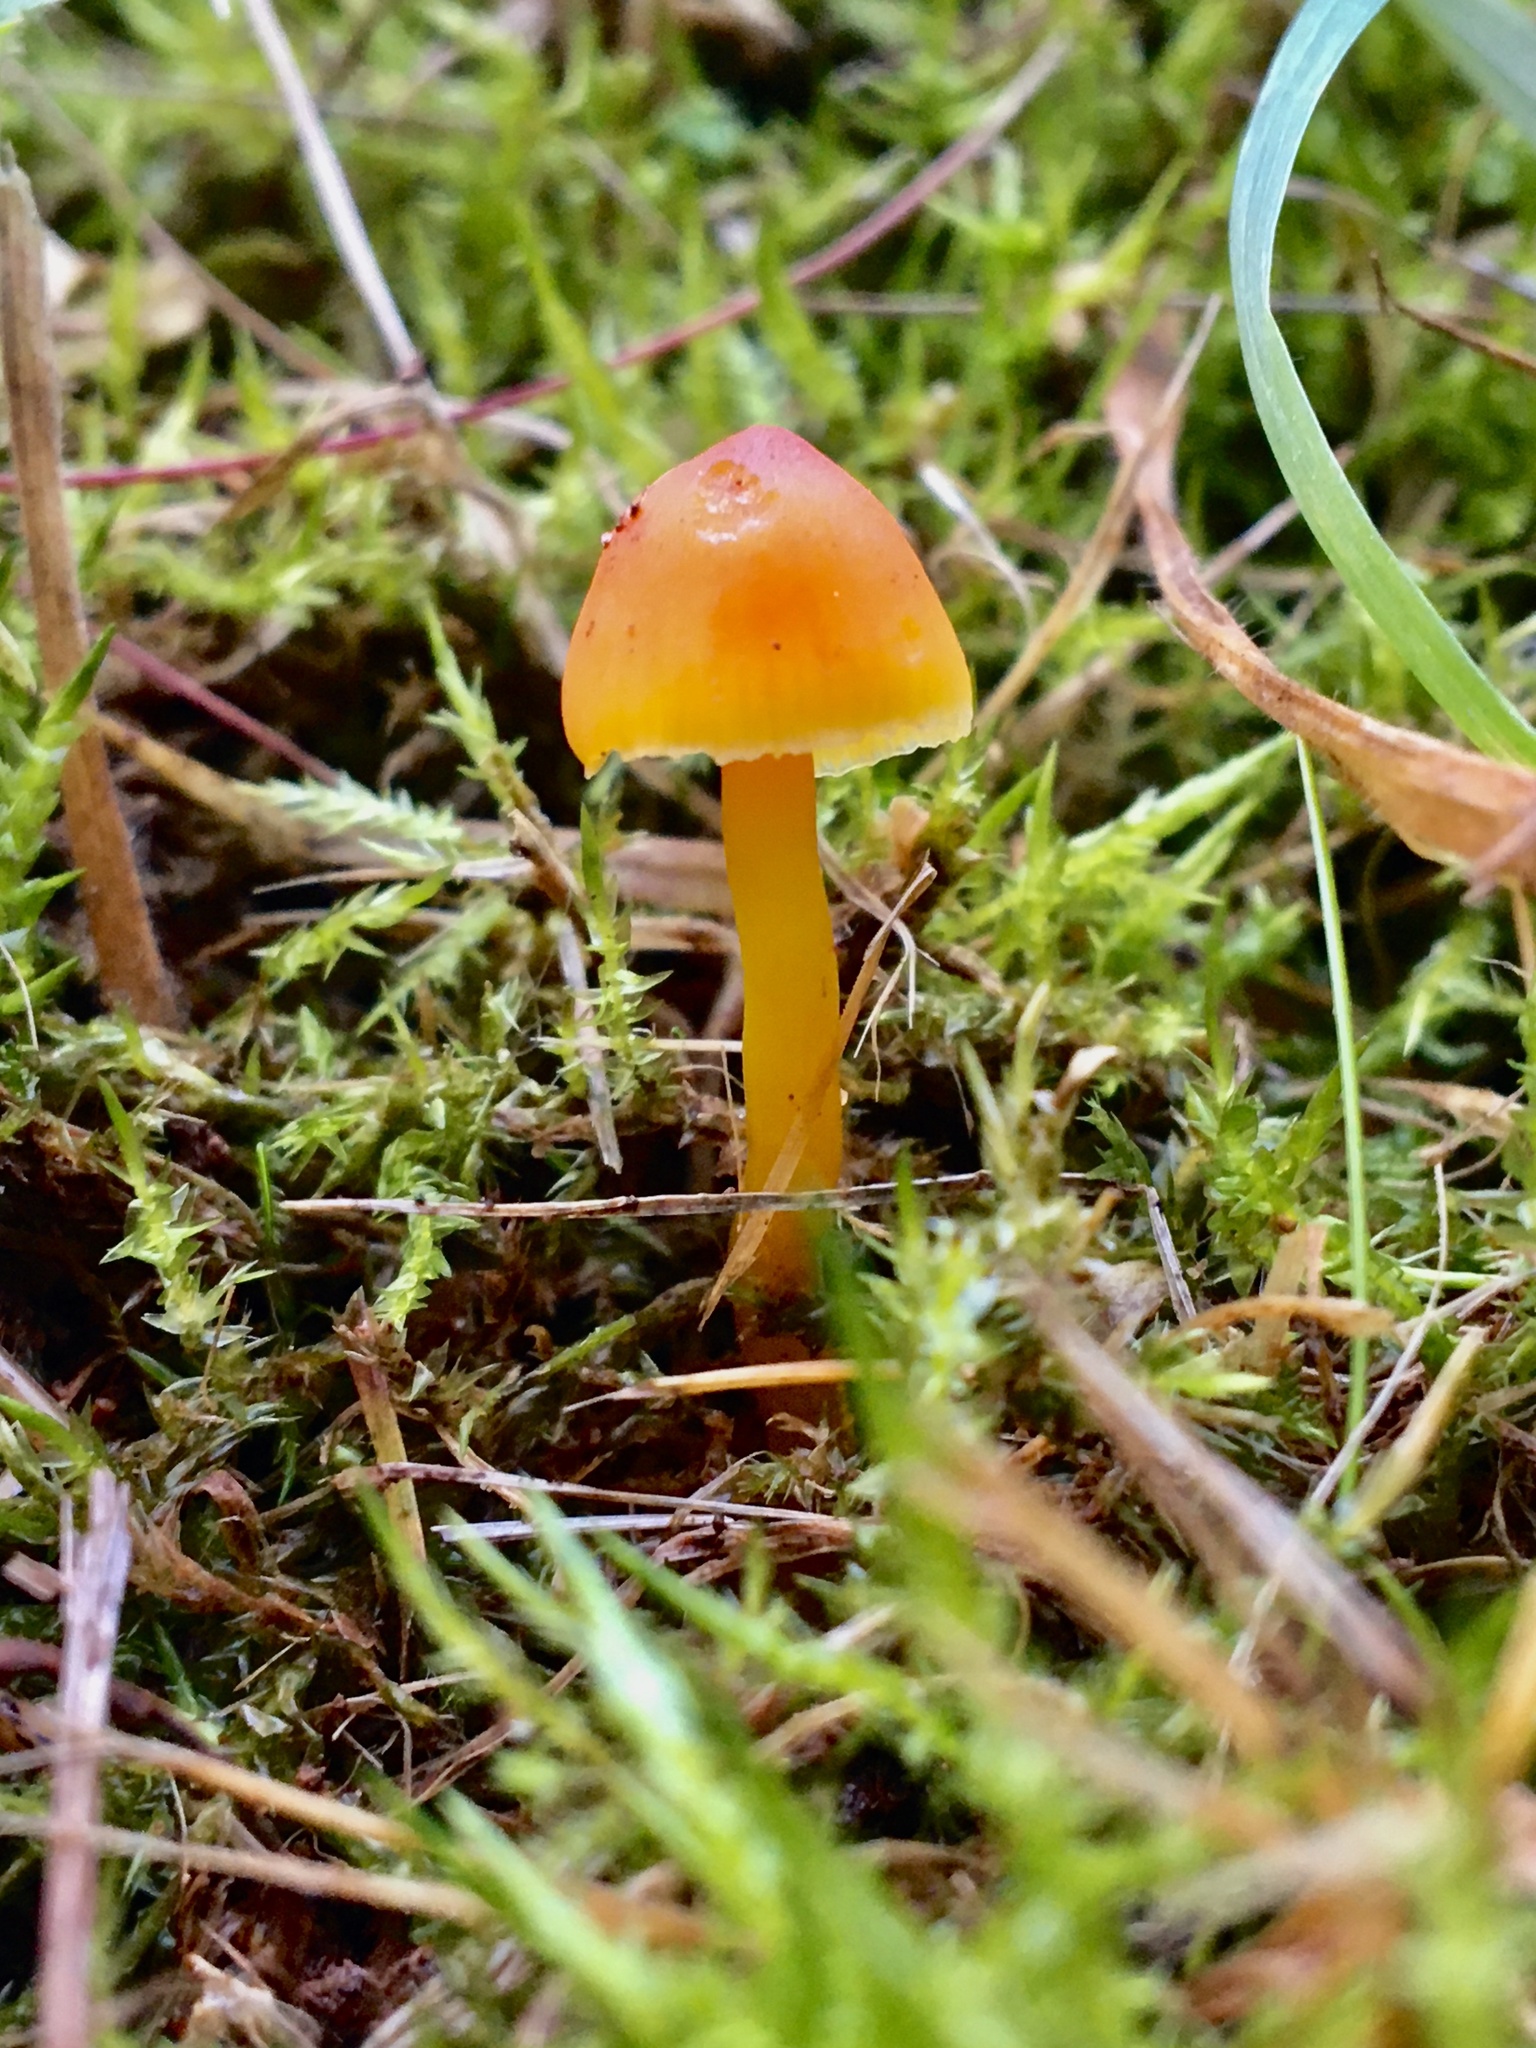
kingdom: Fungi
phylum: Basidiomycota
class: Agaricomycetes
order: Agaricales
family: Hygrophoraceae
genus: Hygrocybe
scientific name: Hygrocybe conica
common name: Blackening wax-cap
